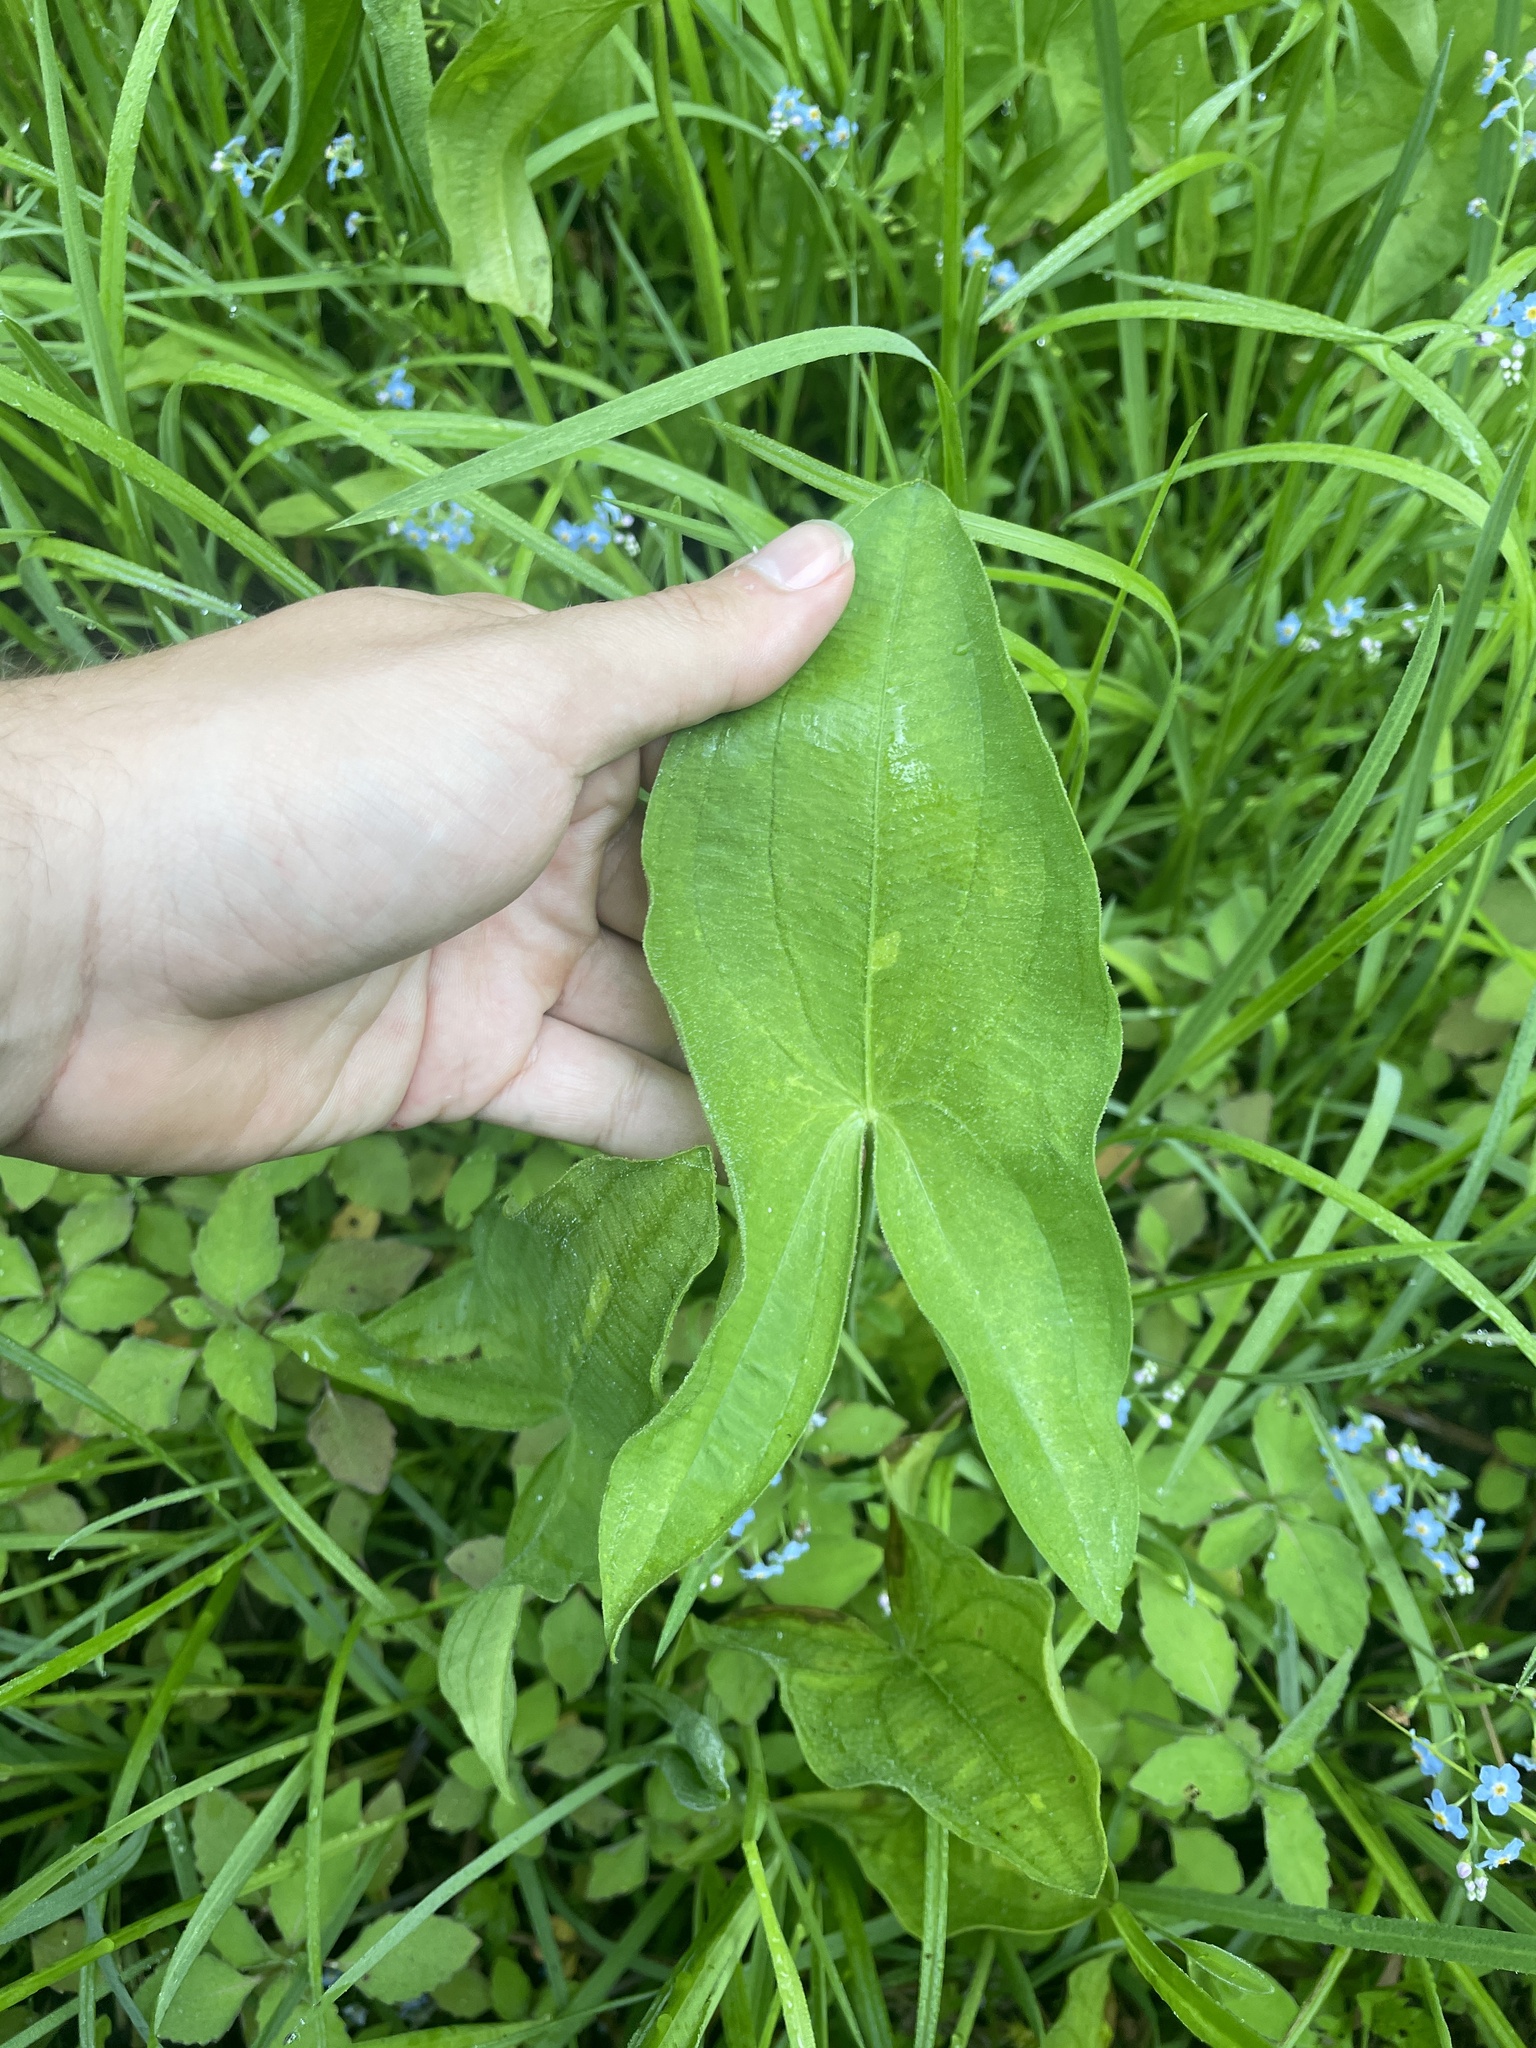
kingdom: Plantae
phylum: Tracheophyta
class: Liliopsida
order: Alismatales
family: Alismataceae
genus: Sagittaria
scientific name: Sagittaria latifolia
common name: Duck-potato
